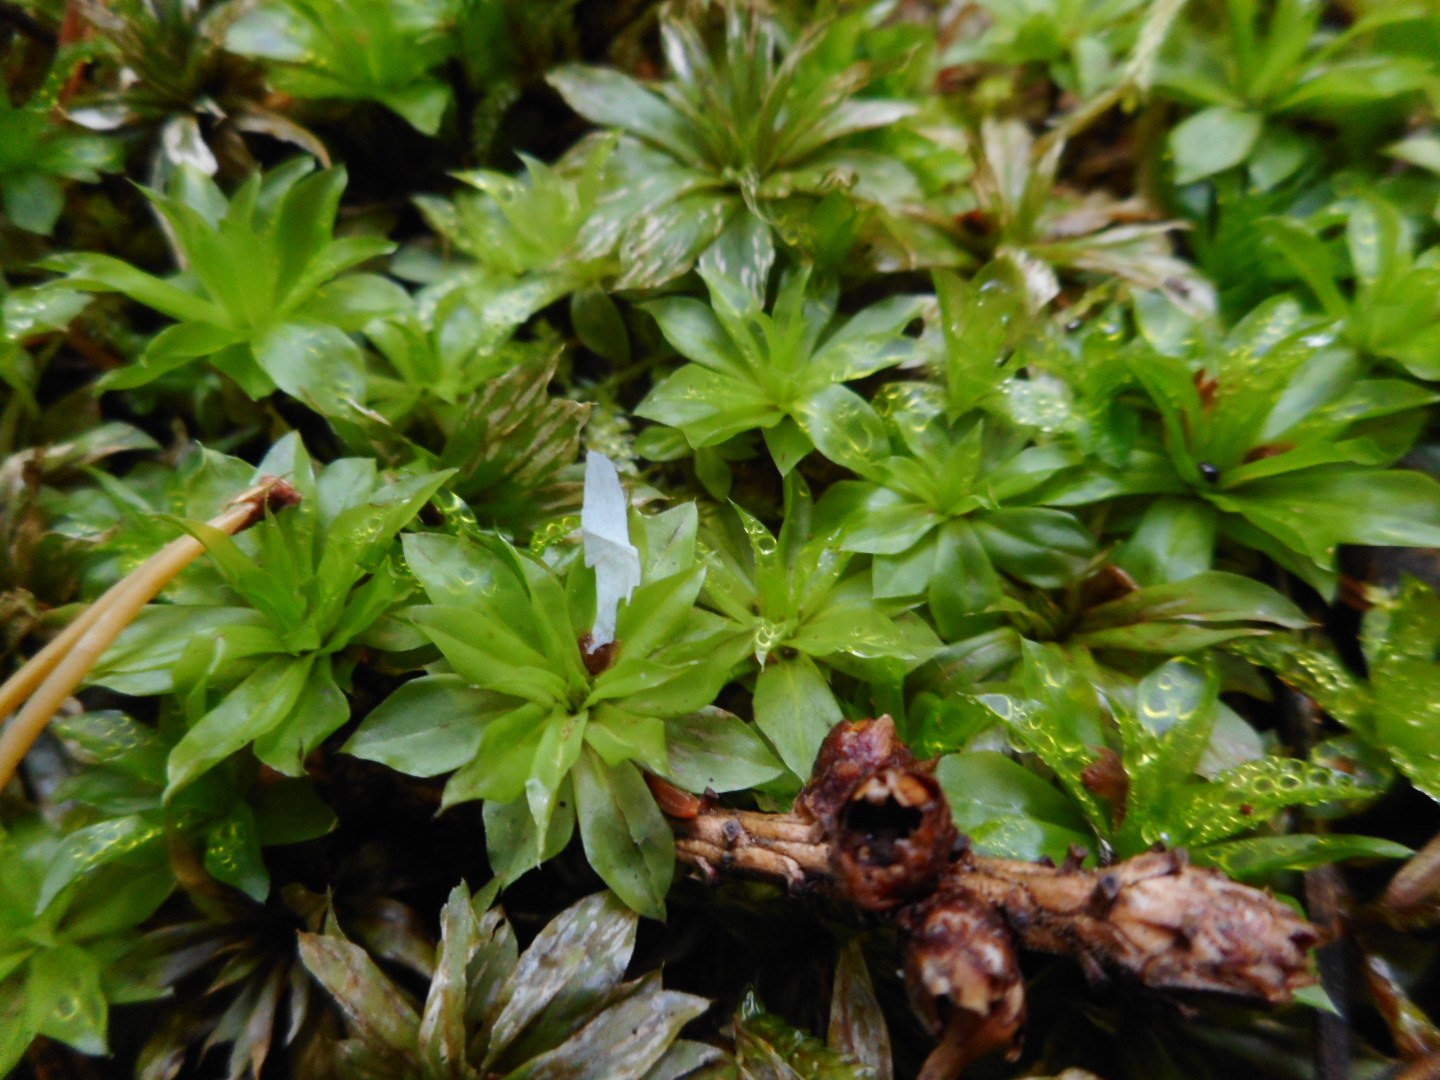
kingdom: Plantae
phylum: Bryophyta
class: Bryopsida
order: Bryales
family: Bryaceae
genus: Rhodobryum
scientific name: Rhodobryum roseum
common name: Rose-moss
